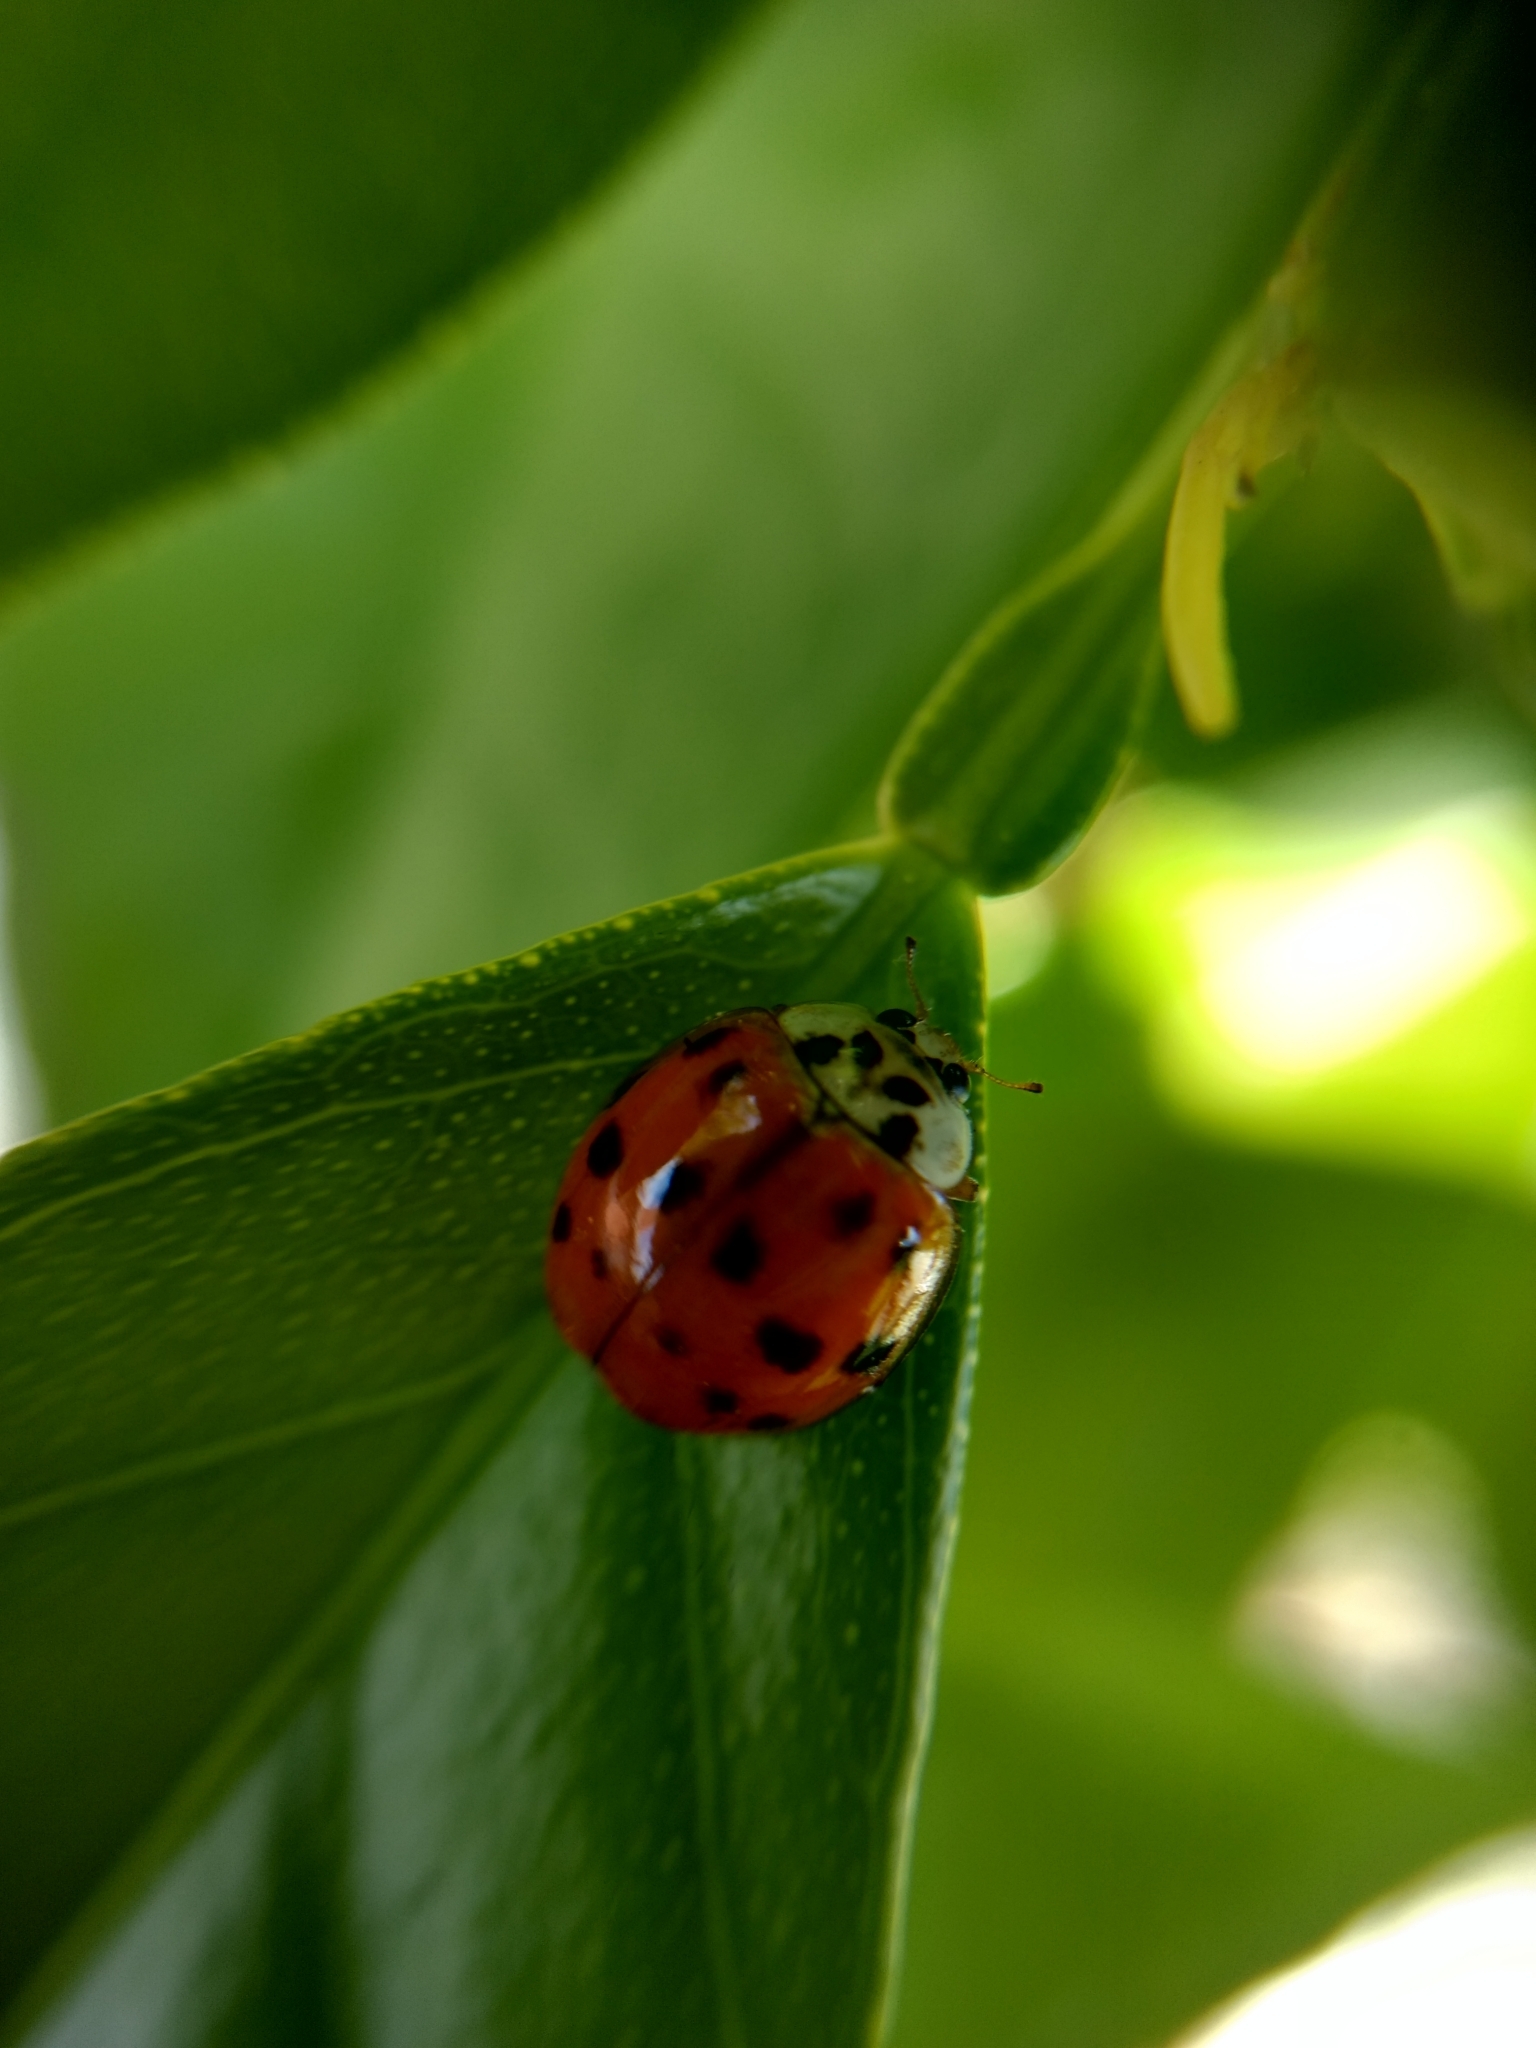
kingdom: Animalia
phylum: Arthropoda
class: Insecta
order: Coleoptera
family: Coccinellidae
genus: Harmonia
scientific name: Harmonia axyridis
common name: Harlequin ladybird
